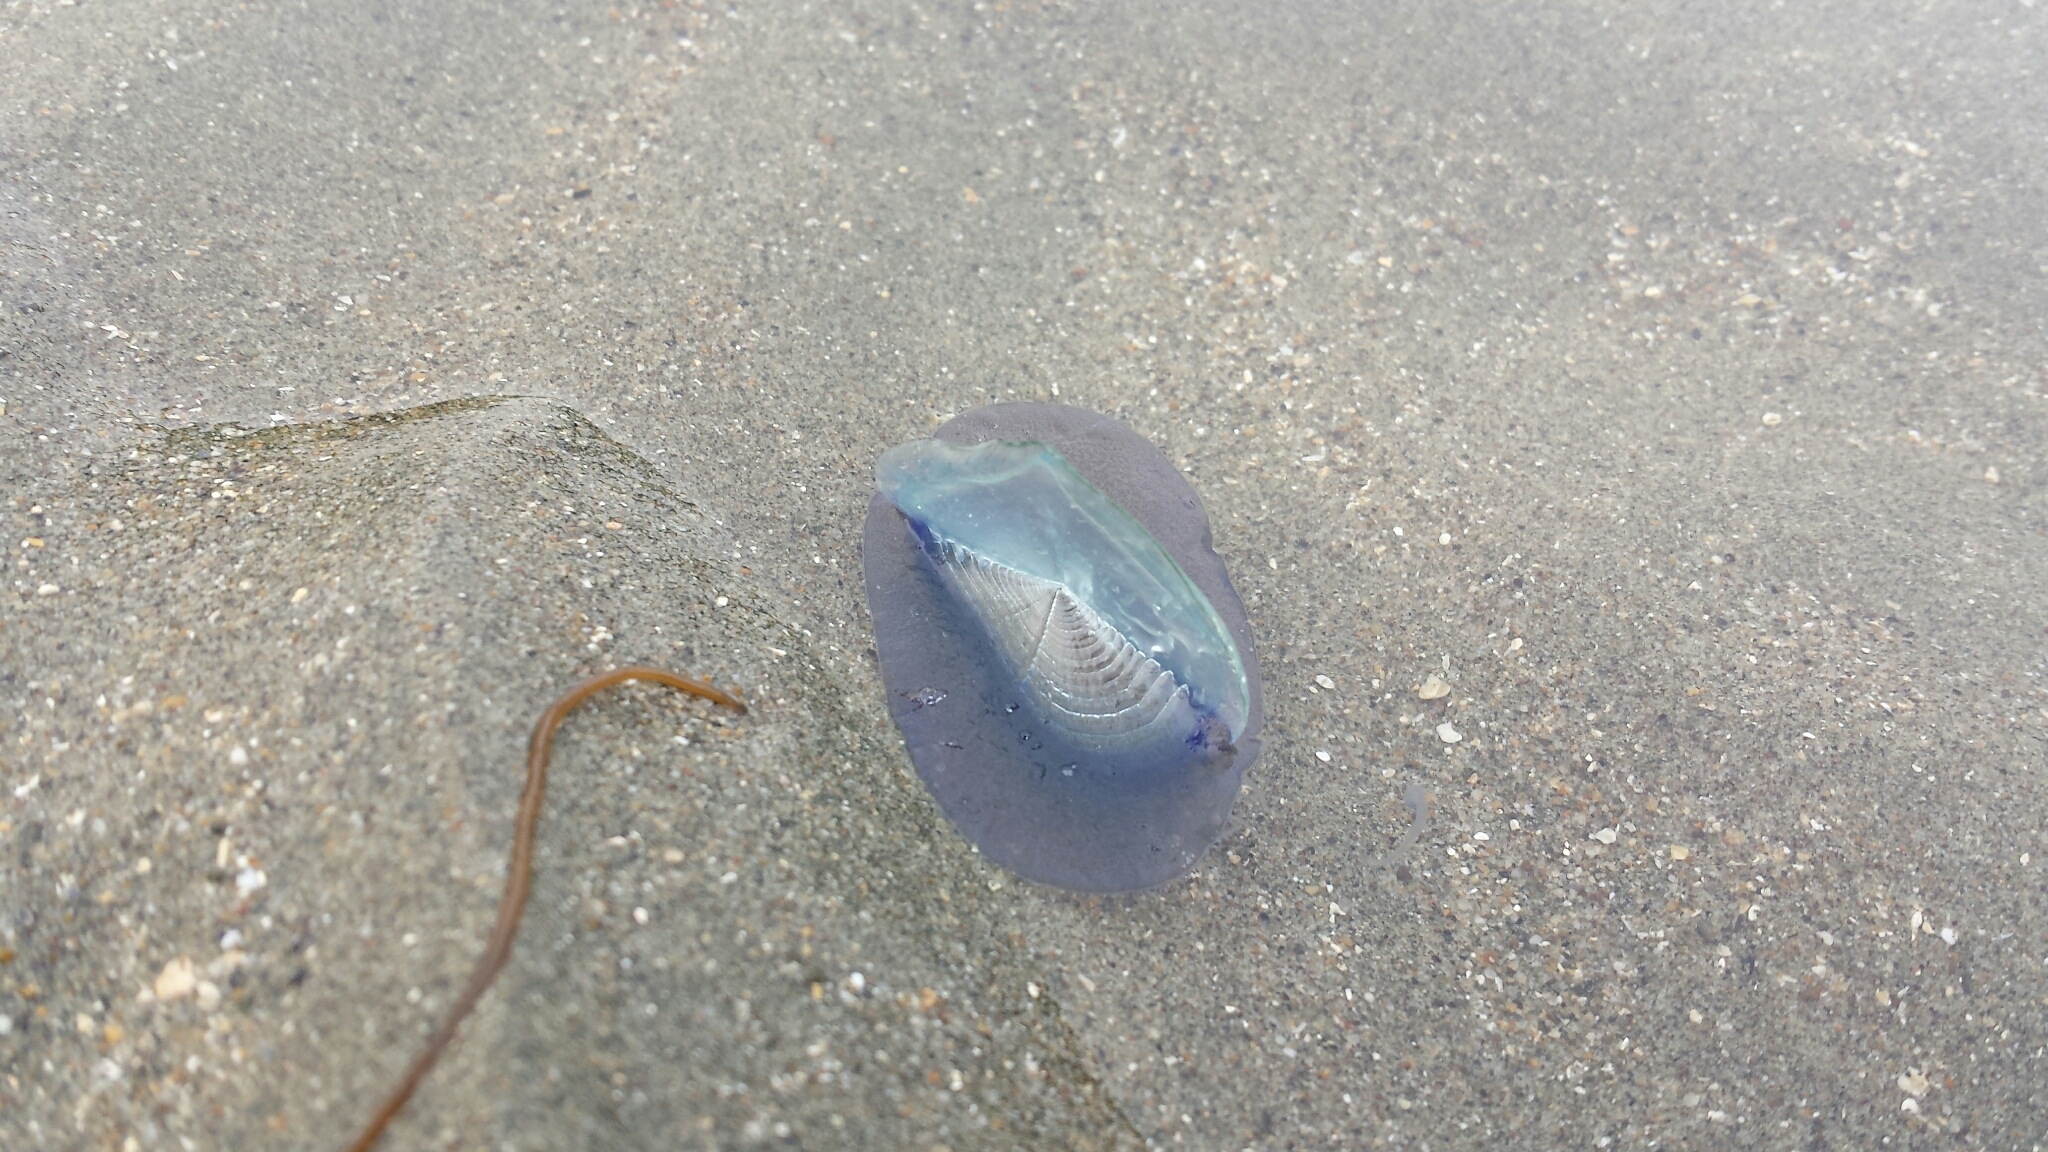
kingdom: Animalia
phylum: Cnidaria
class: Hydrozoa
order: Anthoathecata
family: Porpitidae
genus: Velella
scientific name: Velella velella
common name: By-the-wind-sailor
